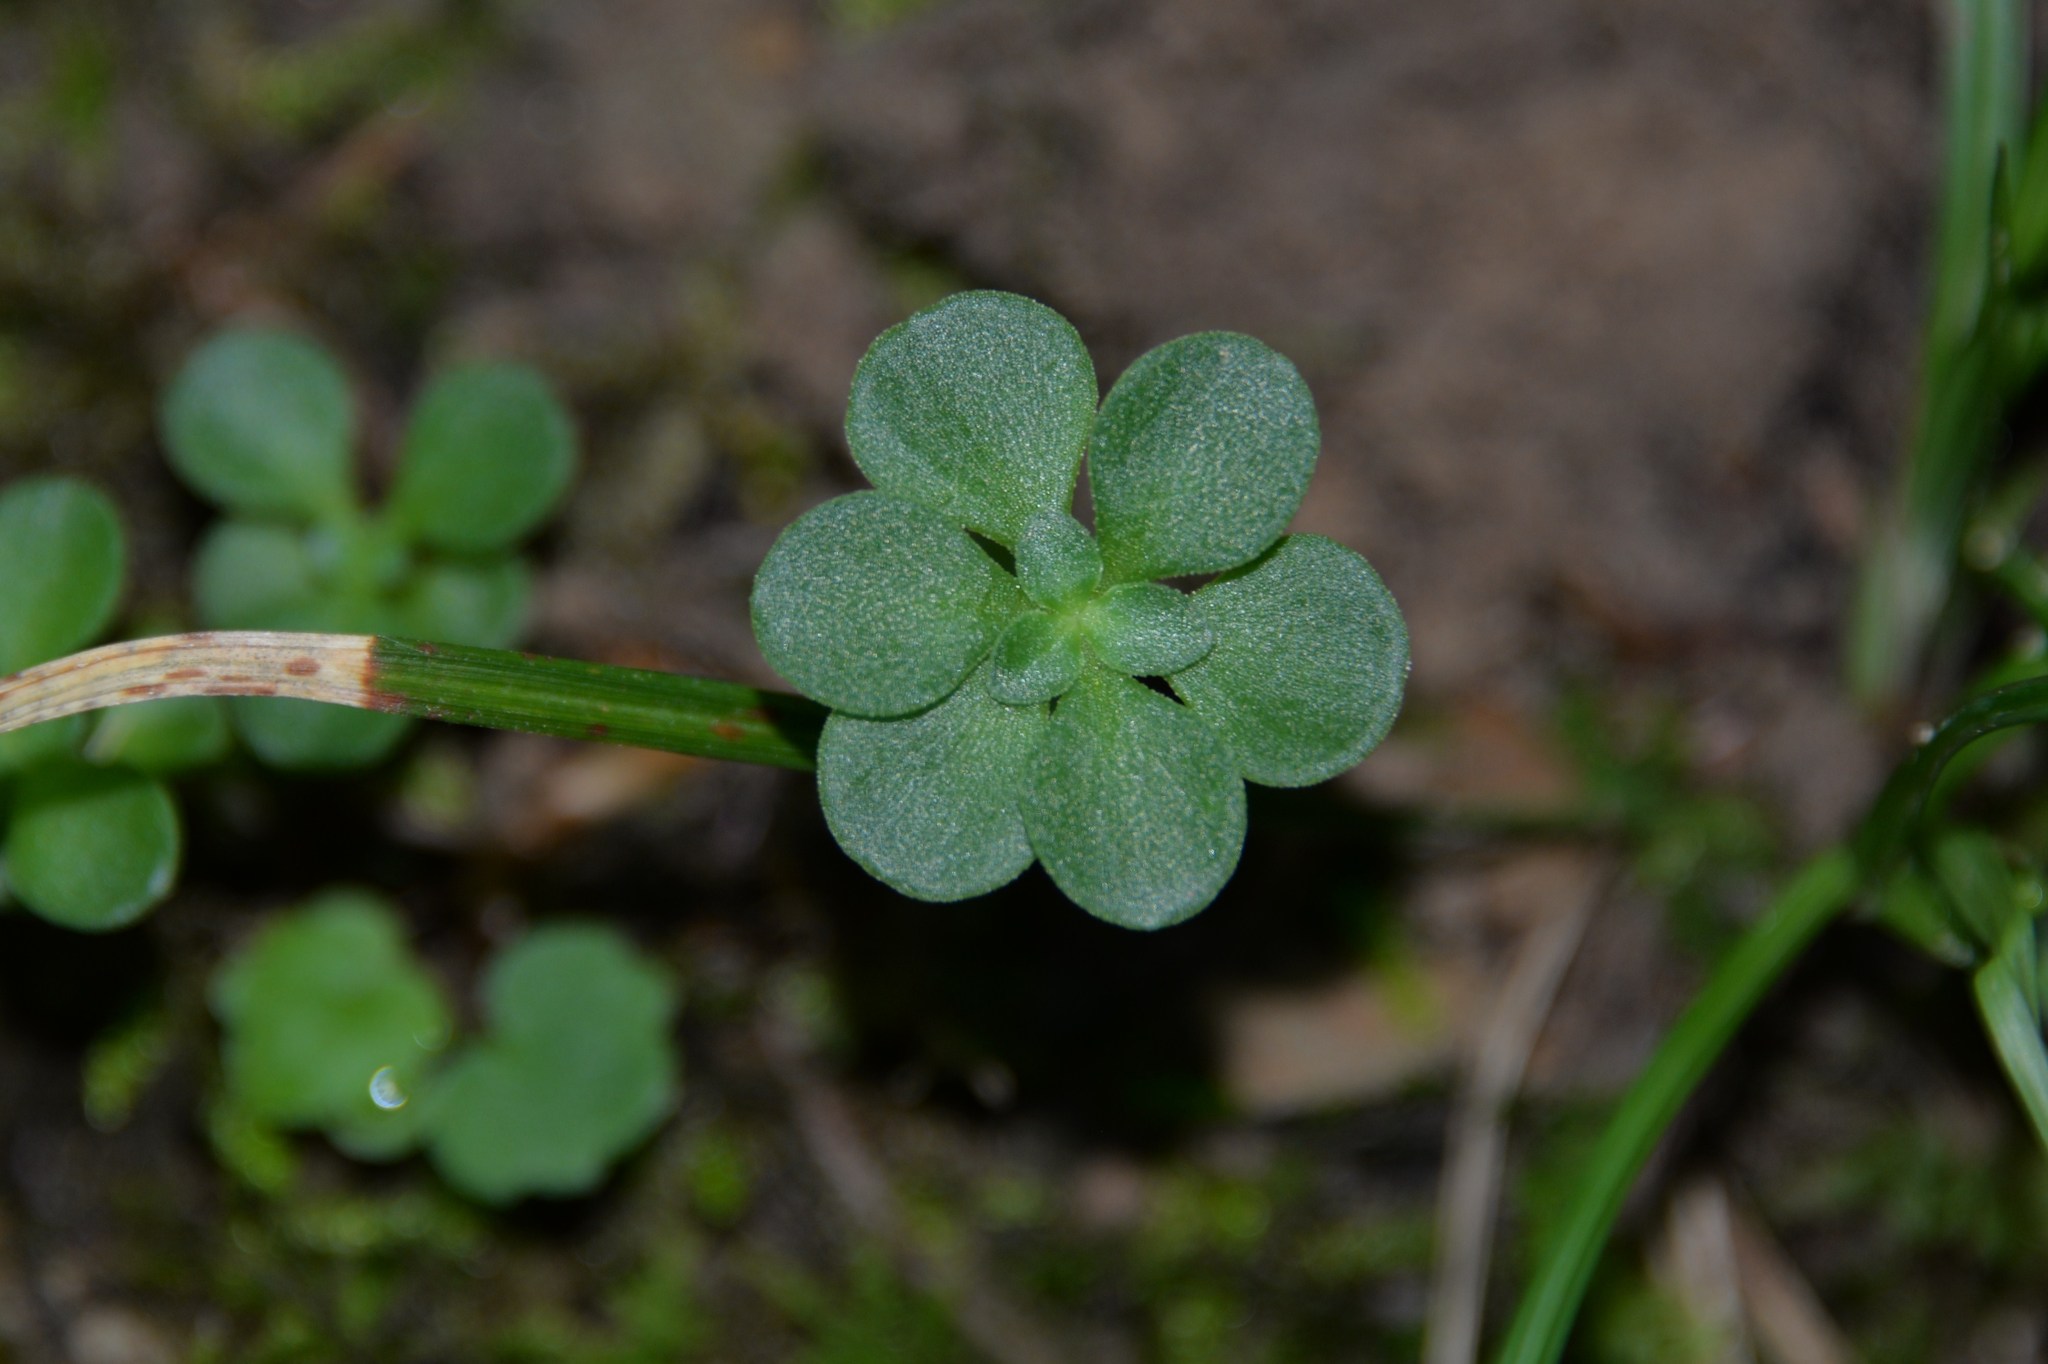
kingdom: Plantae
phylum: Tracheophyta
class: Magnoliopsida
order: Saxifragales
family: Crassulaceae
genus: Sedum
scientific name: Sedum ternatum
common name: Wild stonecrop
